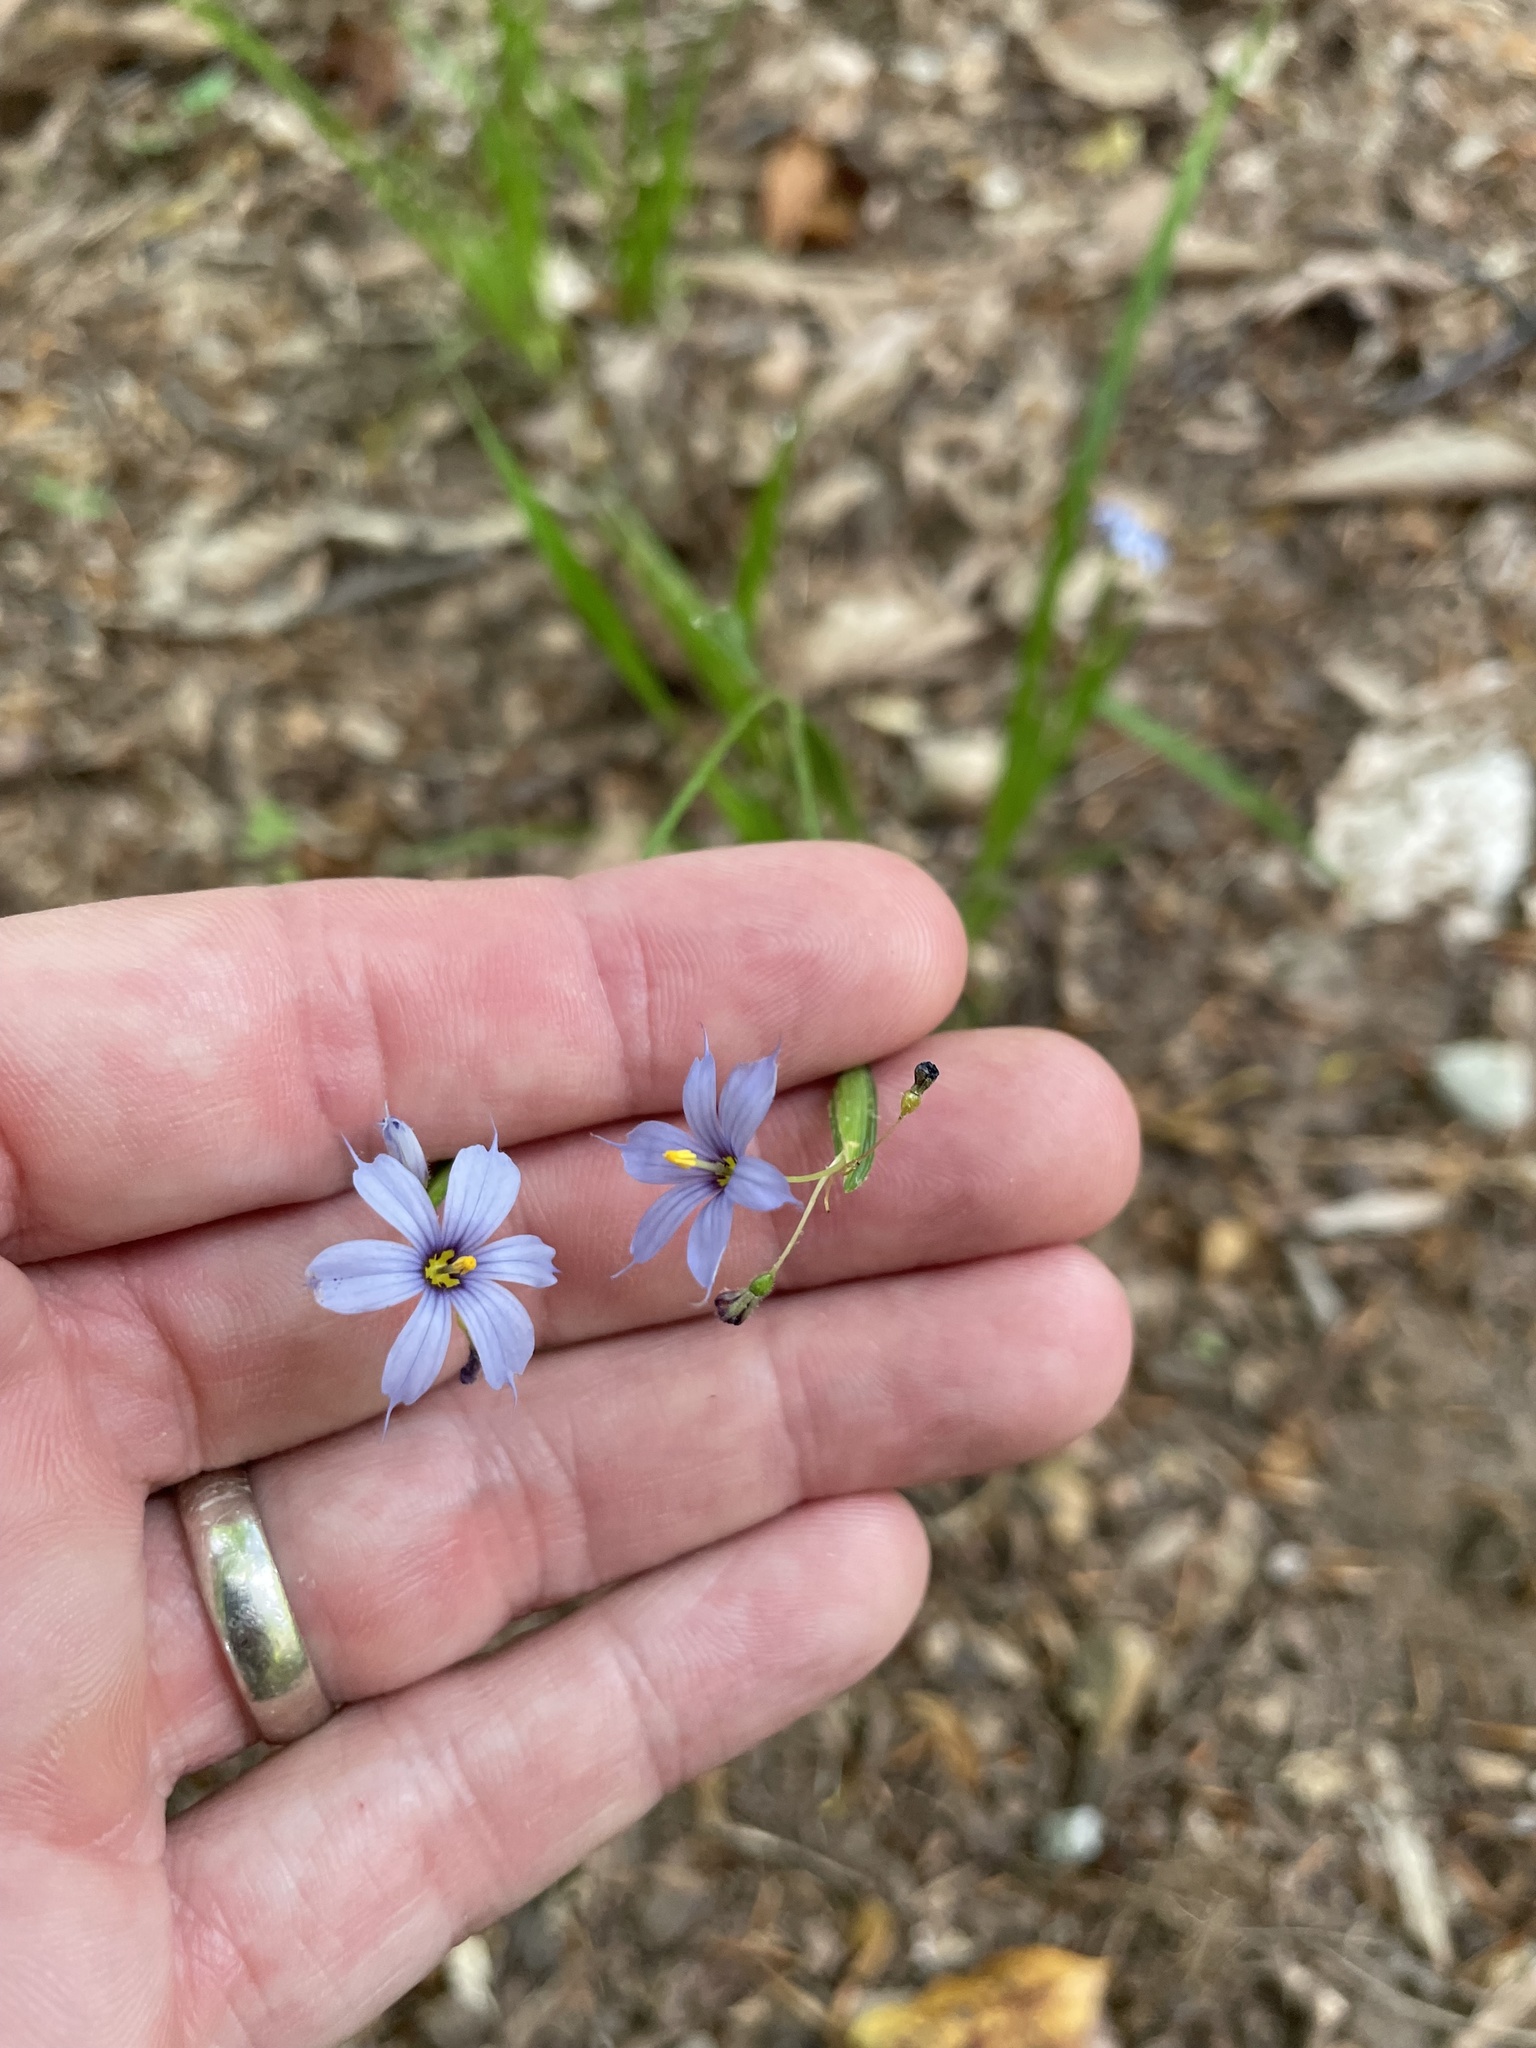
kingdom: Plantae
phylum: Tracheophyta
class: Liliopsida
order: Asparagales
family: Iridaceae
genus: Sisyrinchium
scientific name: Sisyrinchium angustifolium
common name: Narrow-leaf blue-eyed-grass
